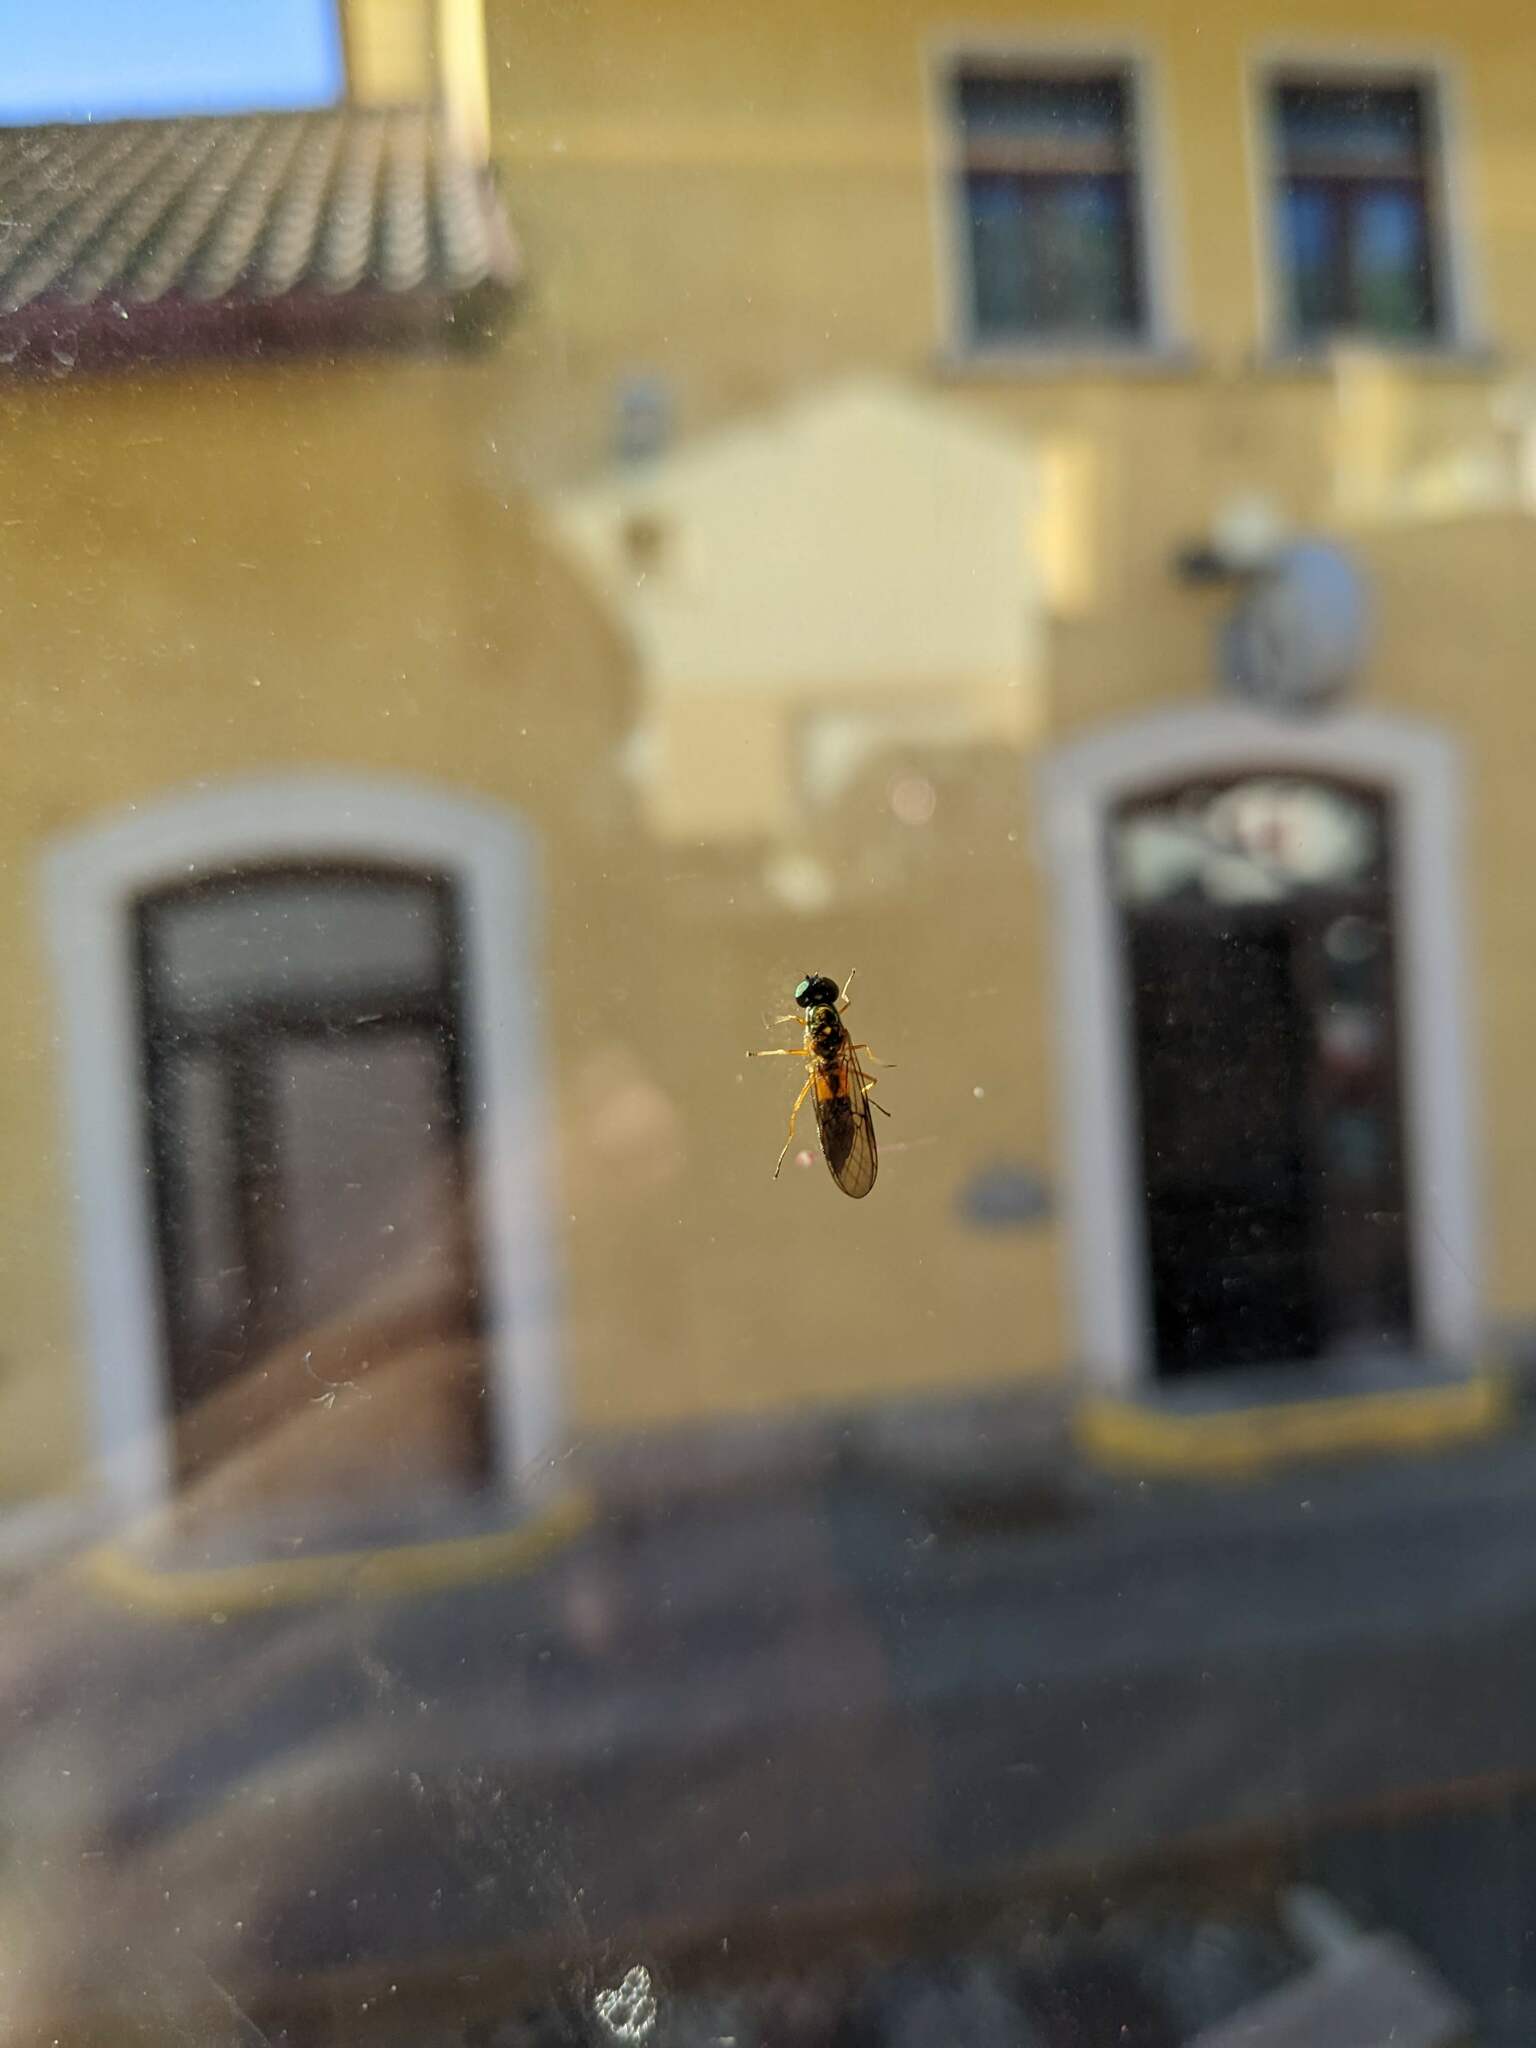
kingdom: Animalia
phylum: Arthropoda
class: Insecta
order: Diptera
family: Stratiomyidae
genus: Sargus
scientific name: Sargus bipunctatus
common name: Twin-spot centurion
